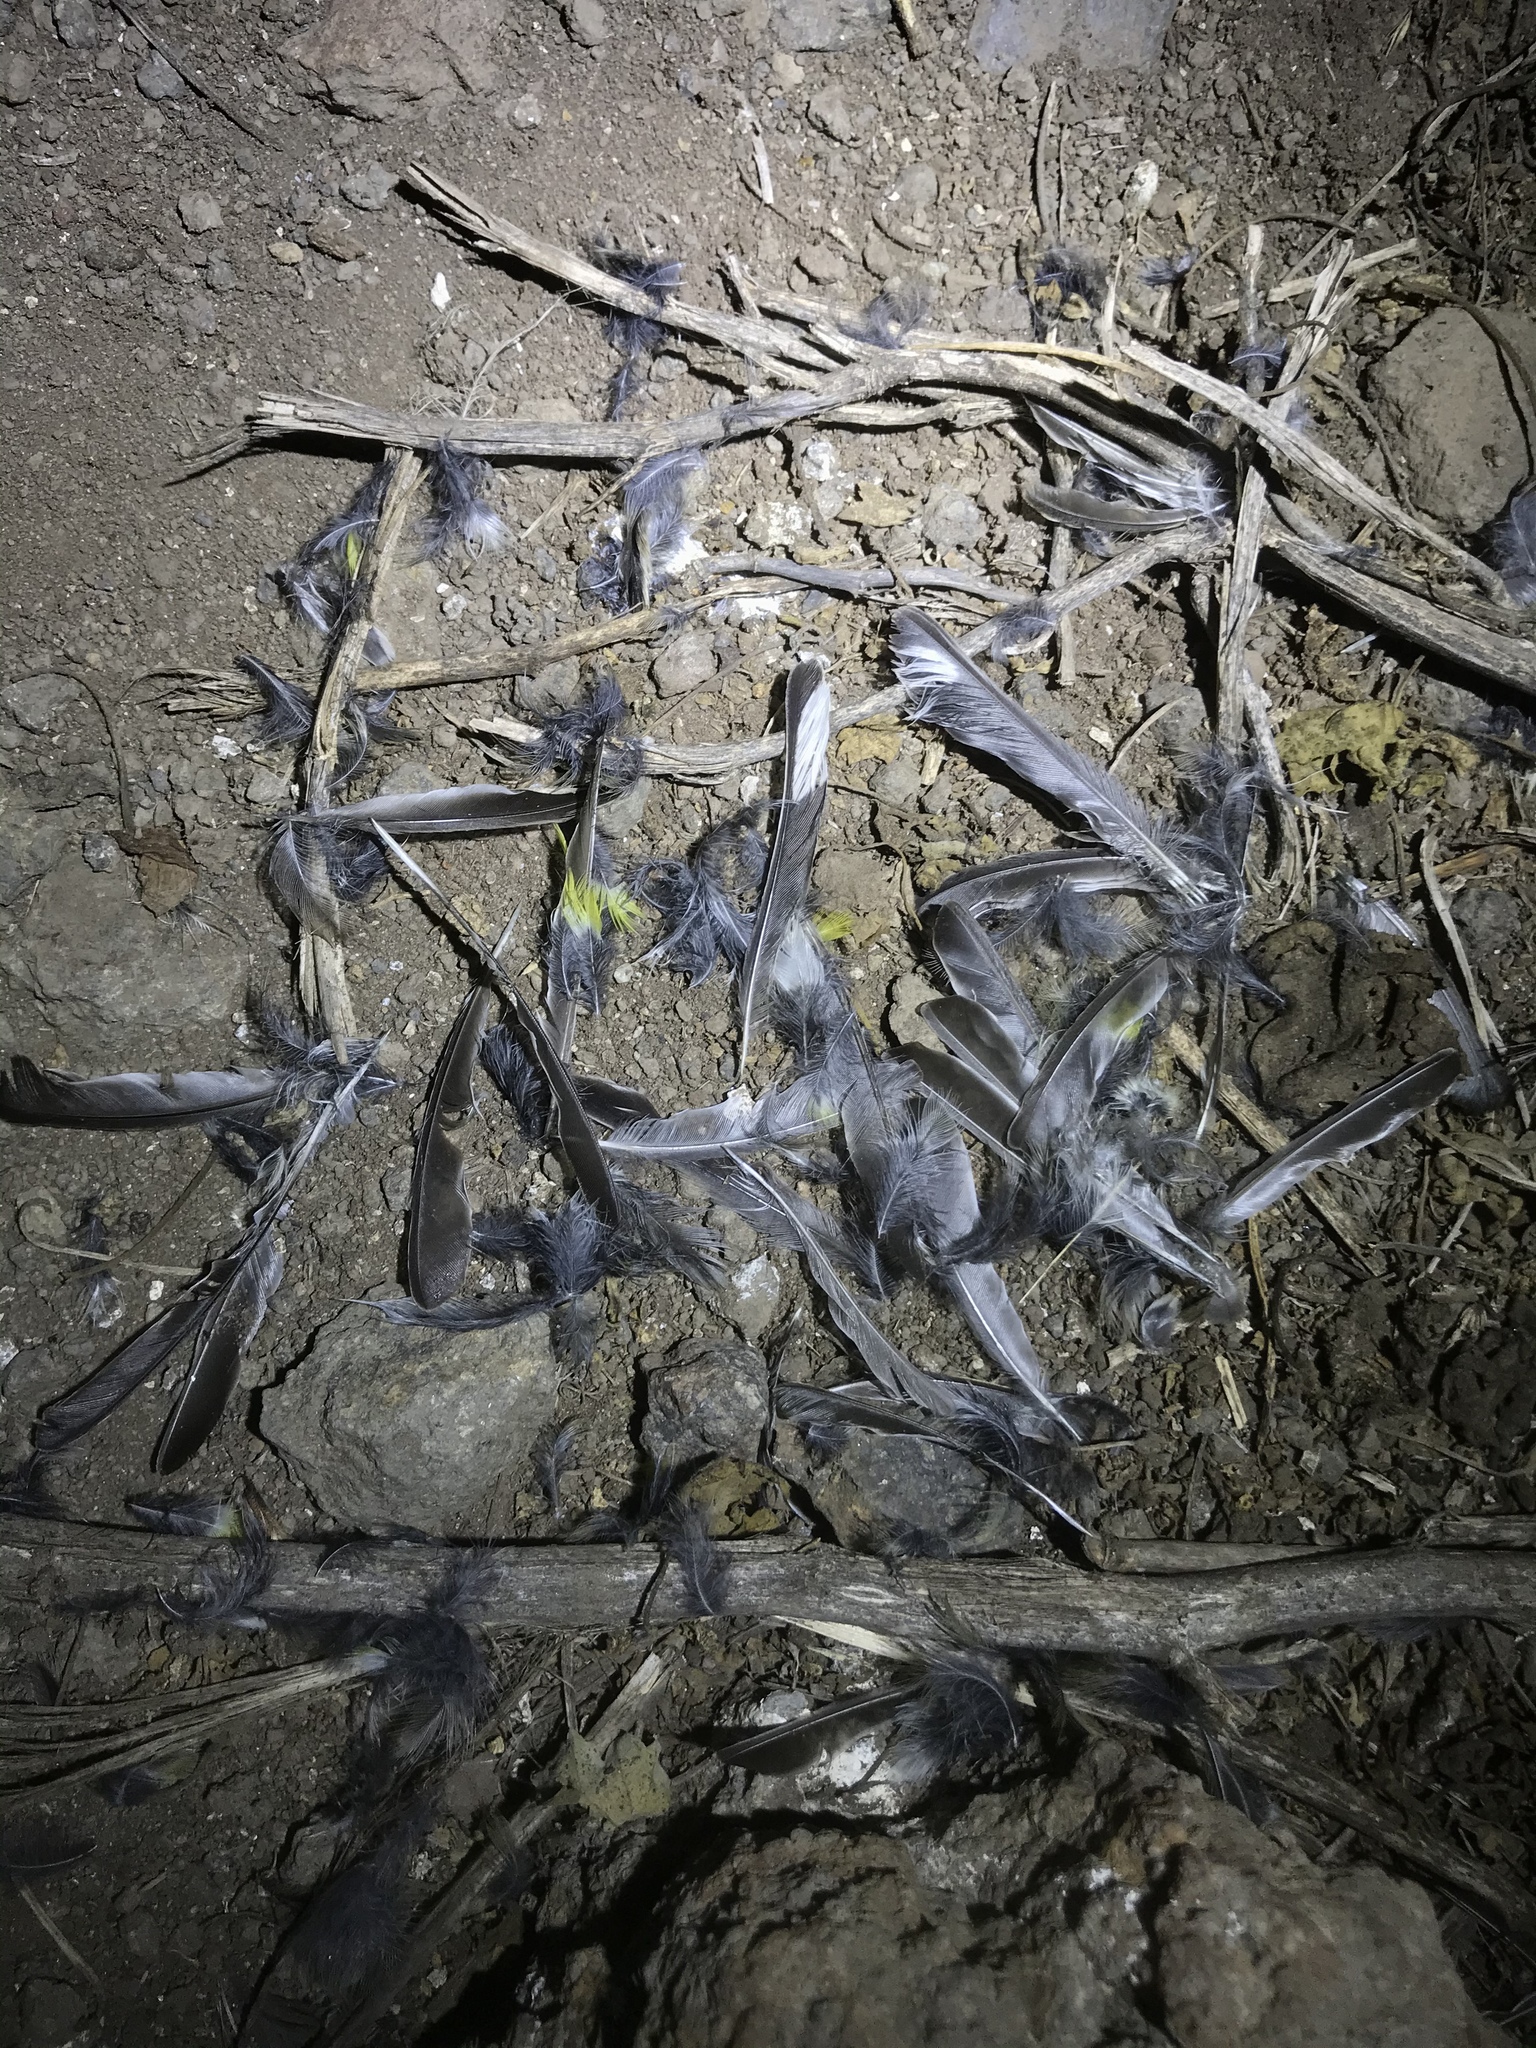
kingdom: Animalia
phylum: Chordata
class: Aves
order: Passeriformes
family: Parulidae
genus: Setophaga
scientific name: Setophaga auduboni
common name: Audubon's warbler
